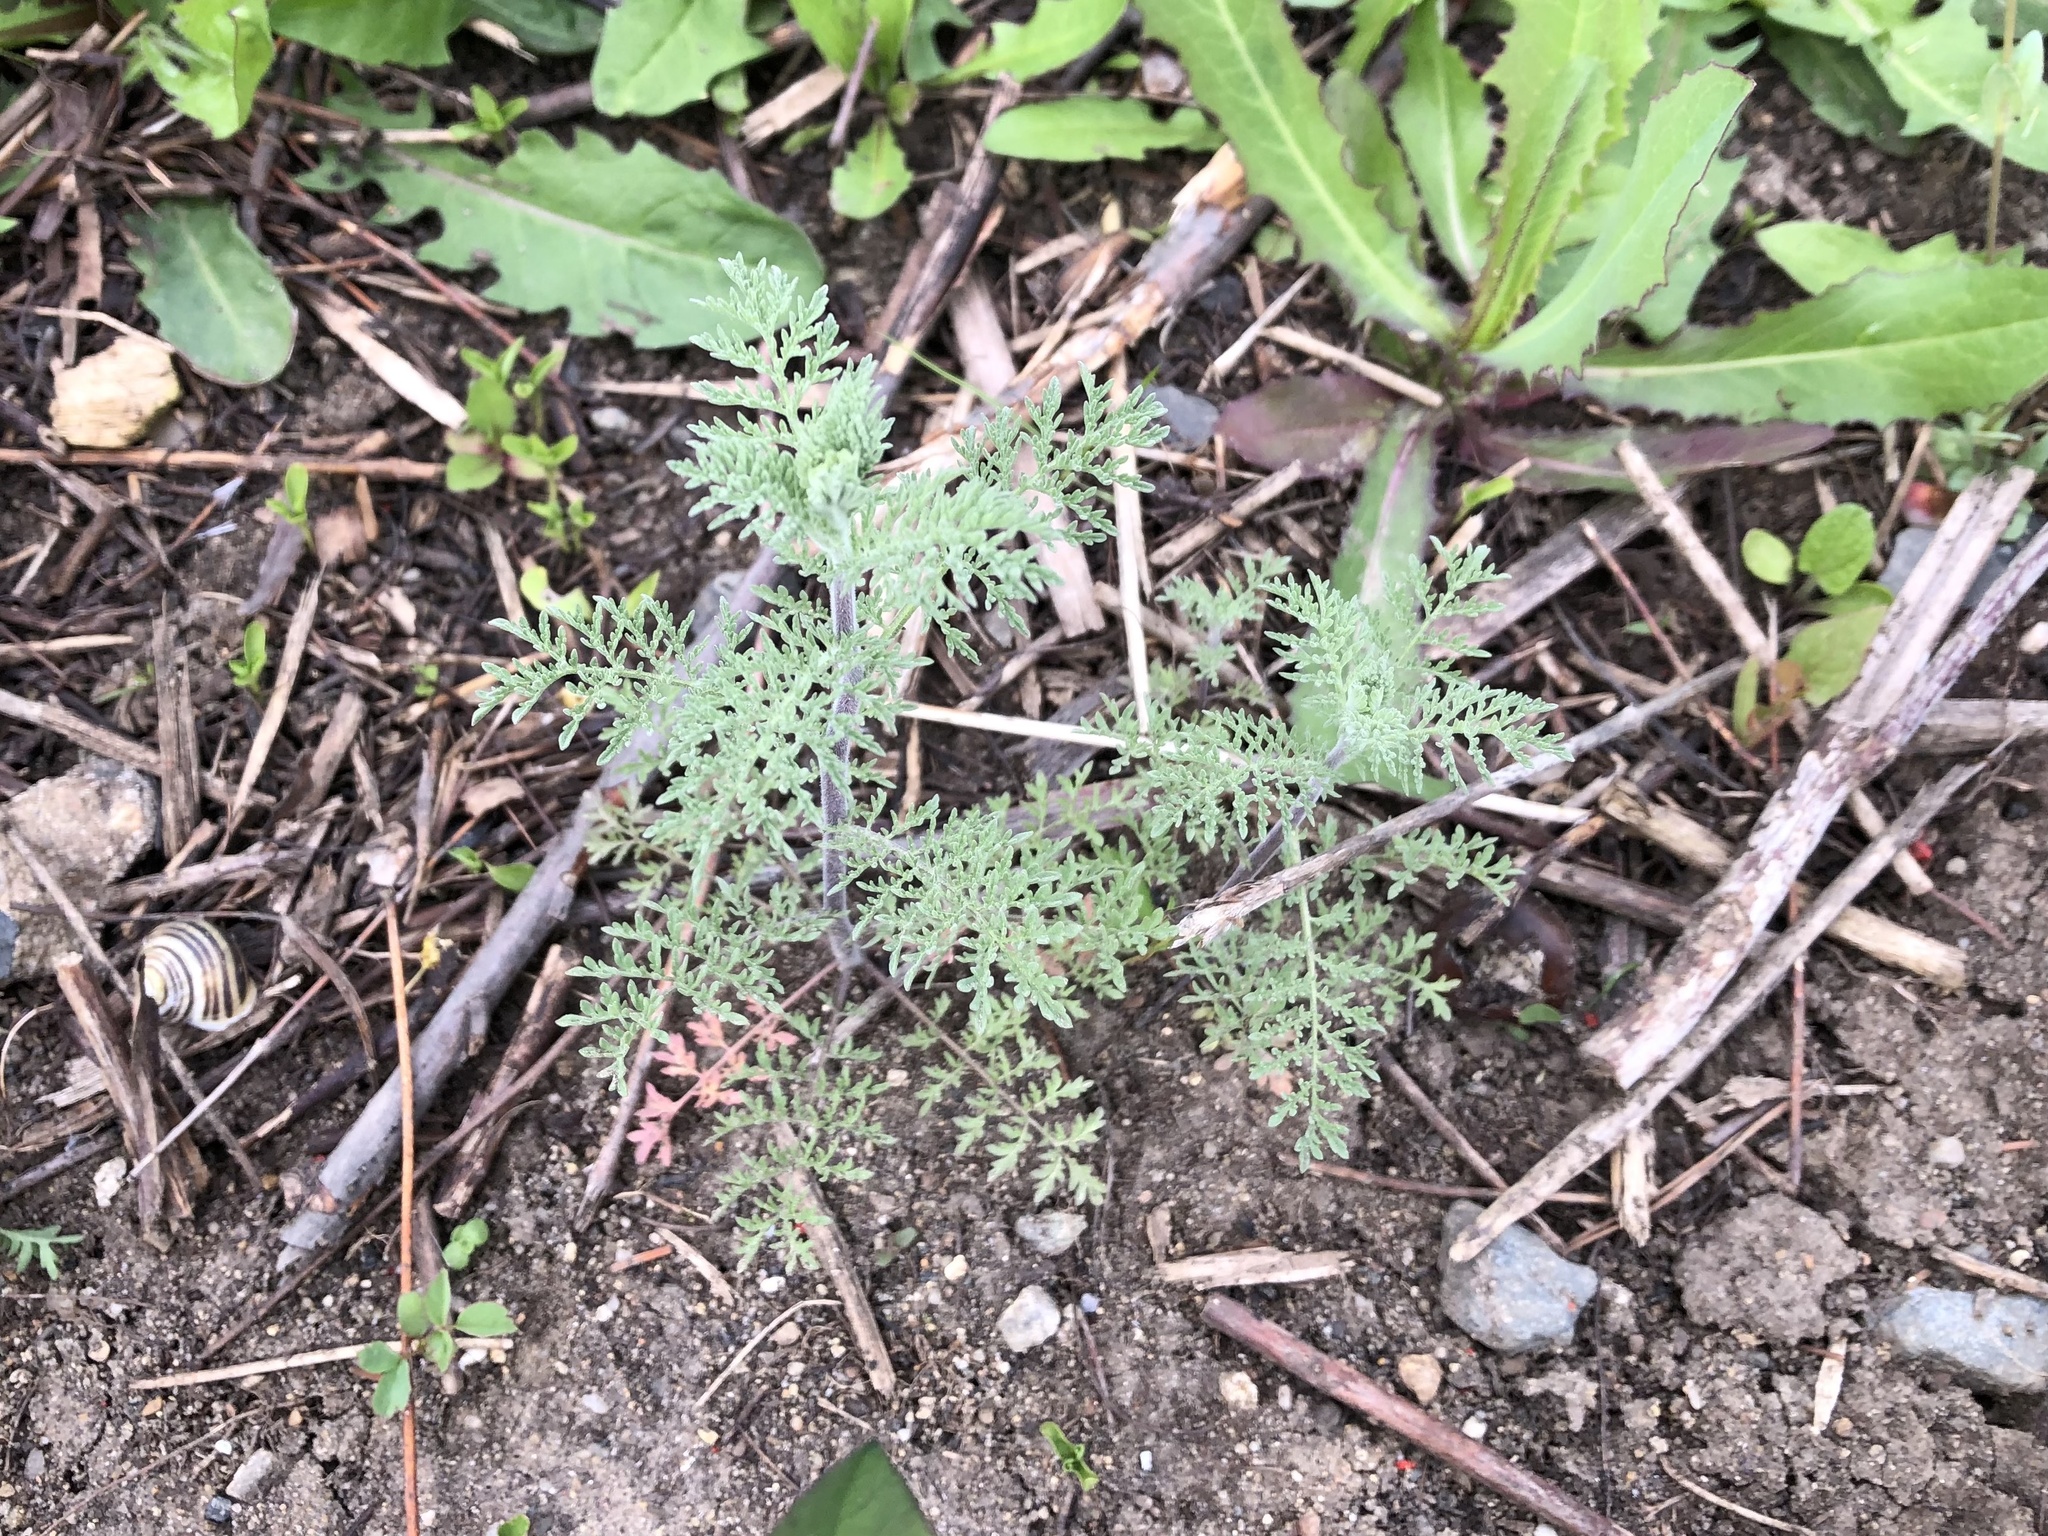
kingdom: Plantae
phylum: Tracheophyta
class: Magnoliopsida
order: Brassicales
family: Brassicaceae
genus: Descurainia
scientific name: Descurainia sophia
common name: Flixweed
